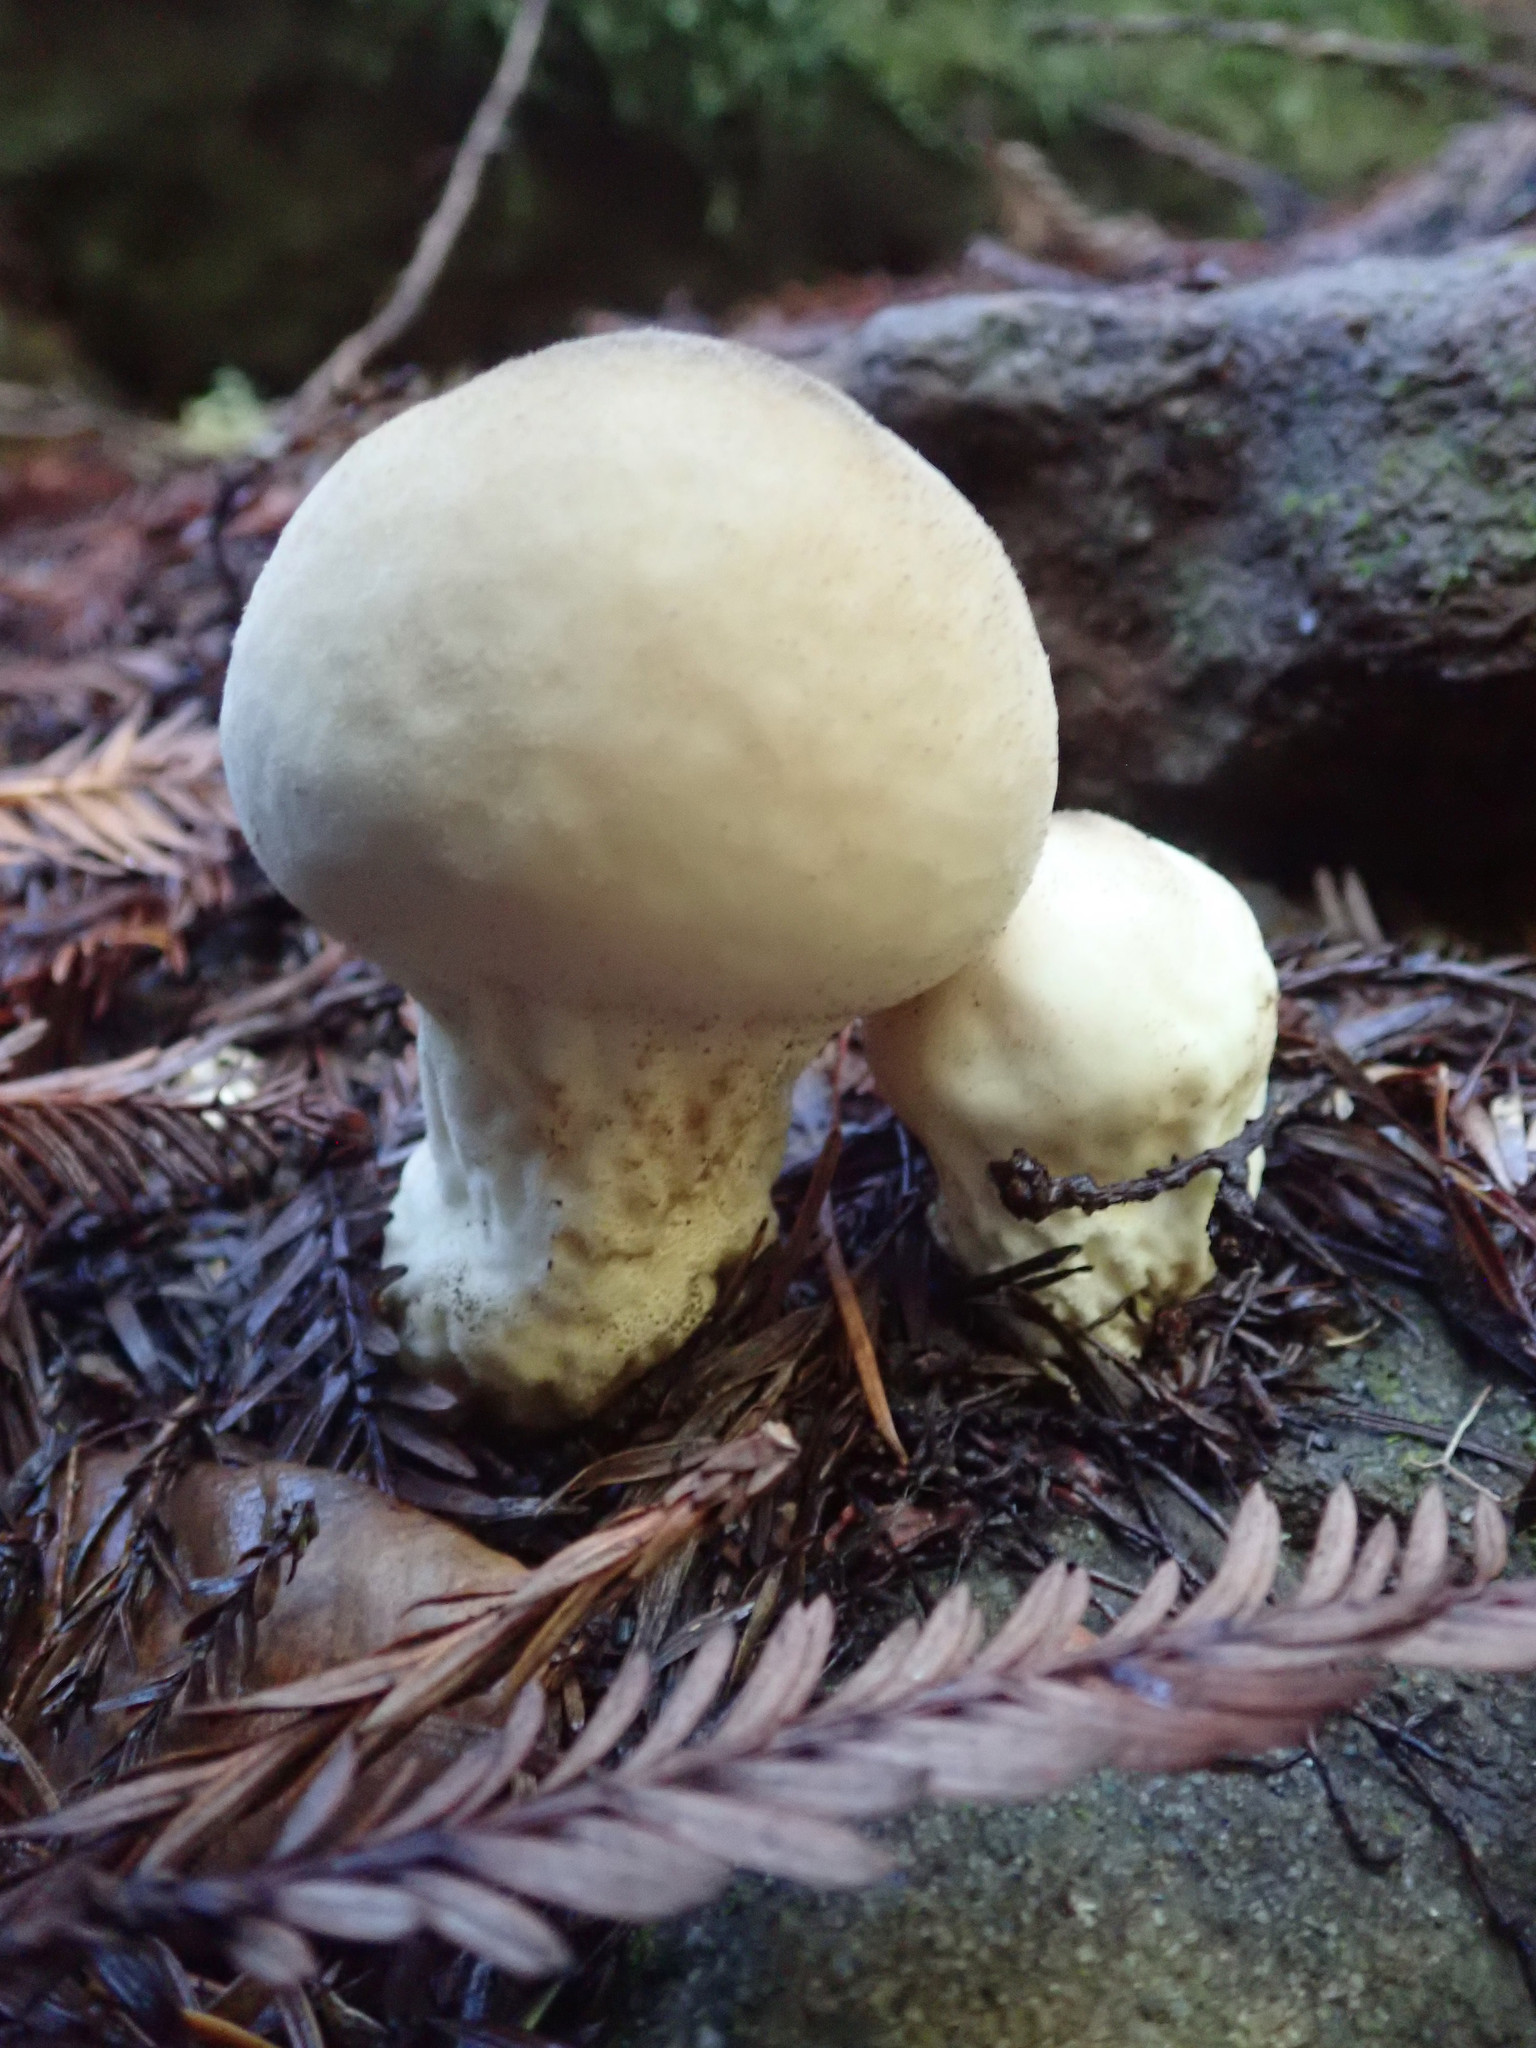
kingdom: Fungi
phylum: Basidiomycota
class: Agaricomycetes
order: Agaricales
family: Lycoperdaceae
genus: Apioperdon
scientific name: Apioperdon pyriforme
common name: Pear-shaped puffball
